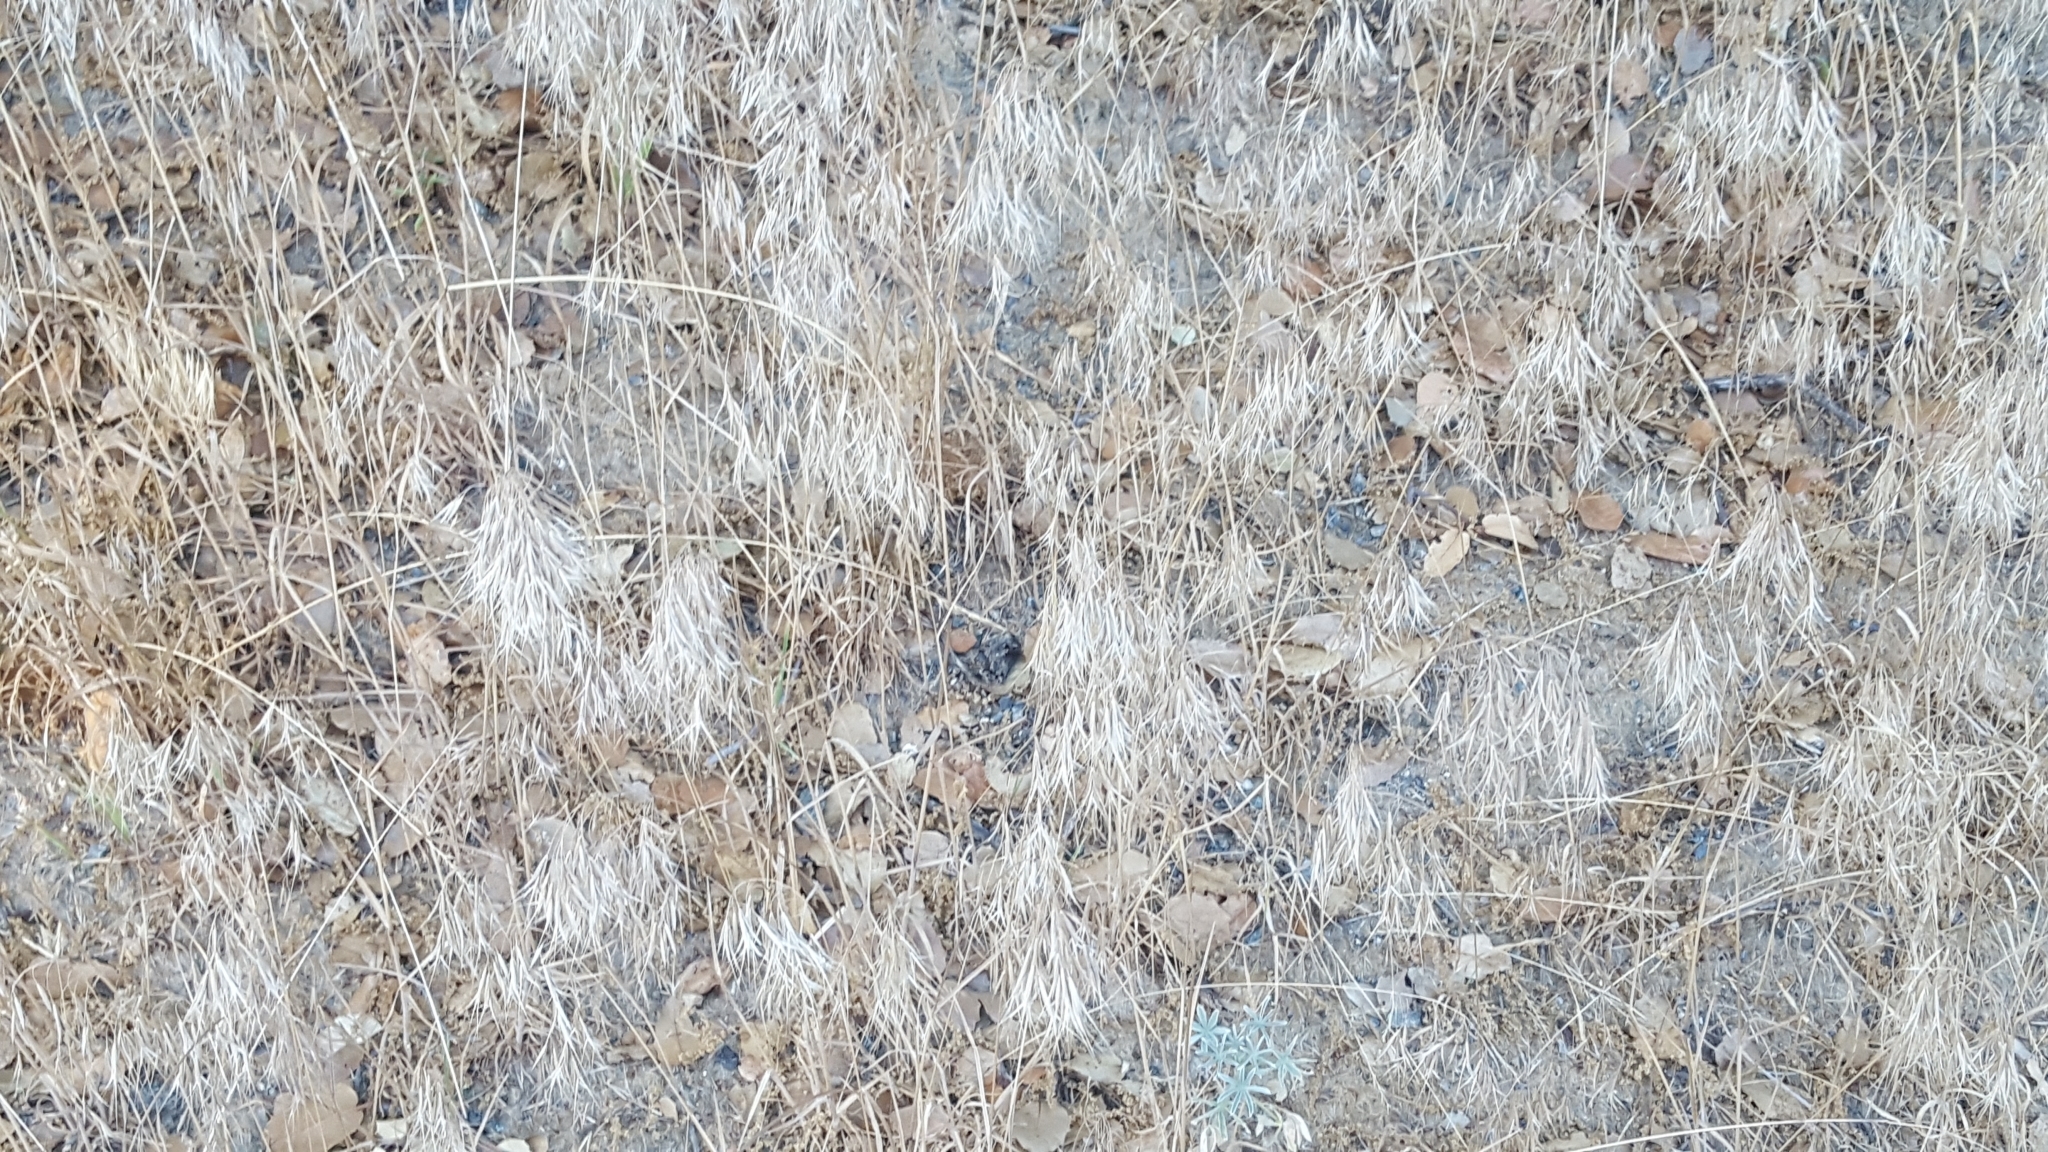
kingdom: Plantae
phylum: Tracheophyta
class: Liliopsida
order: Poales
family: Poaceae
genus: Bromus
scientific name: Bromus tectorum
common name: Cheatgrass
